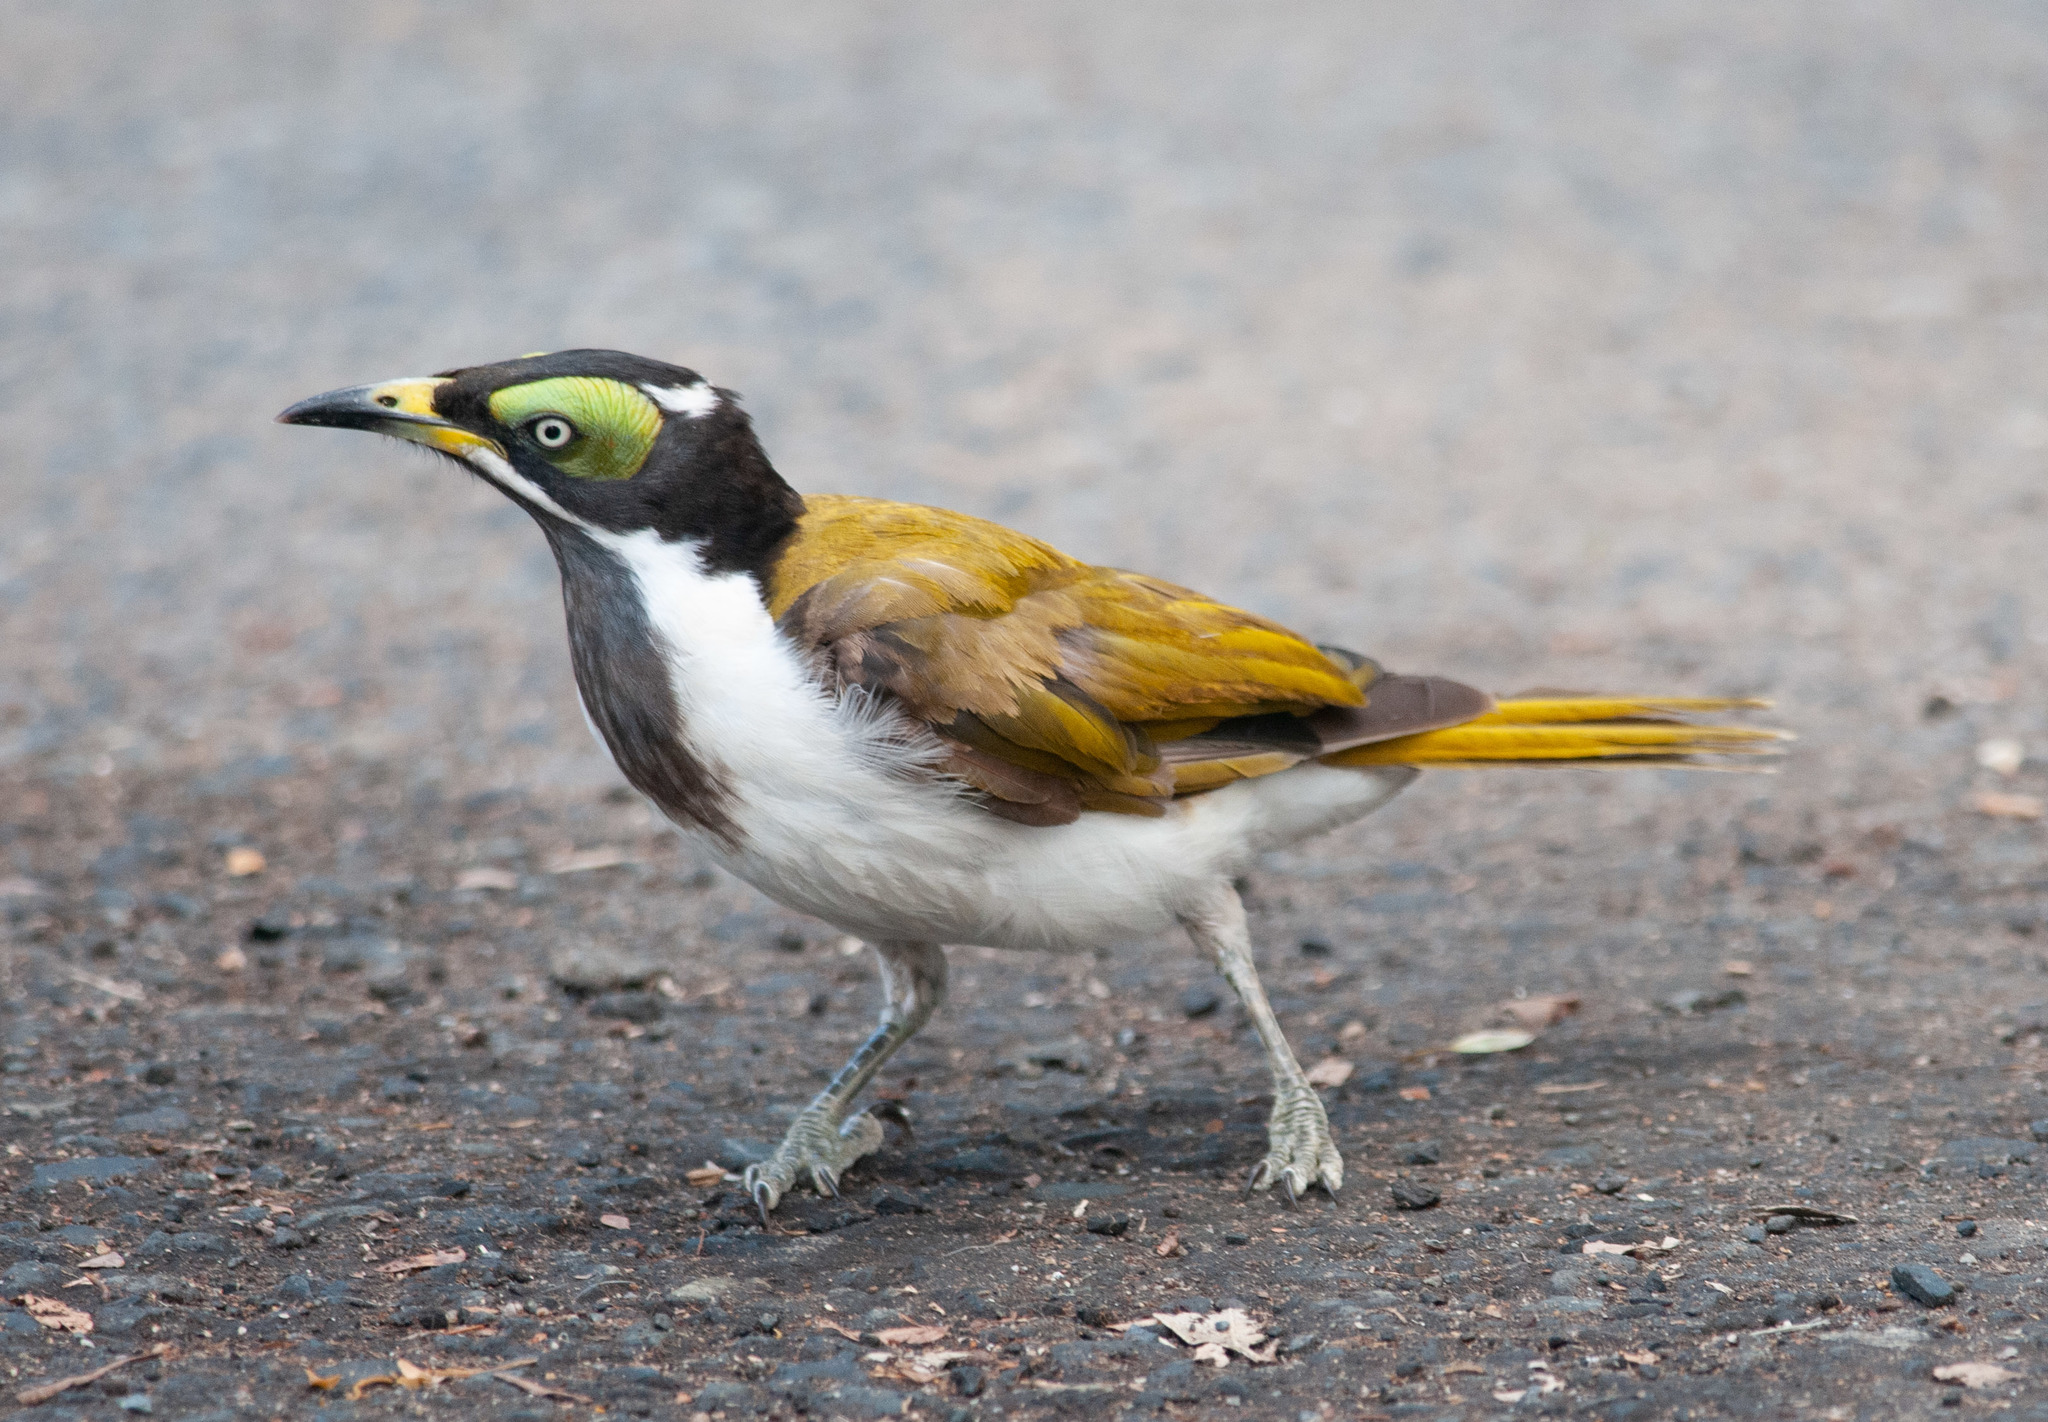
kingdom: Animalia
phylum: Chordata
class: Aves
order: Passeriformes
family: Meliphagidae
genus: Entomyzon
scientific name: Entomyzon cyanotis
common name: Blue-faced honeyeater
